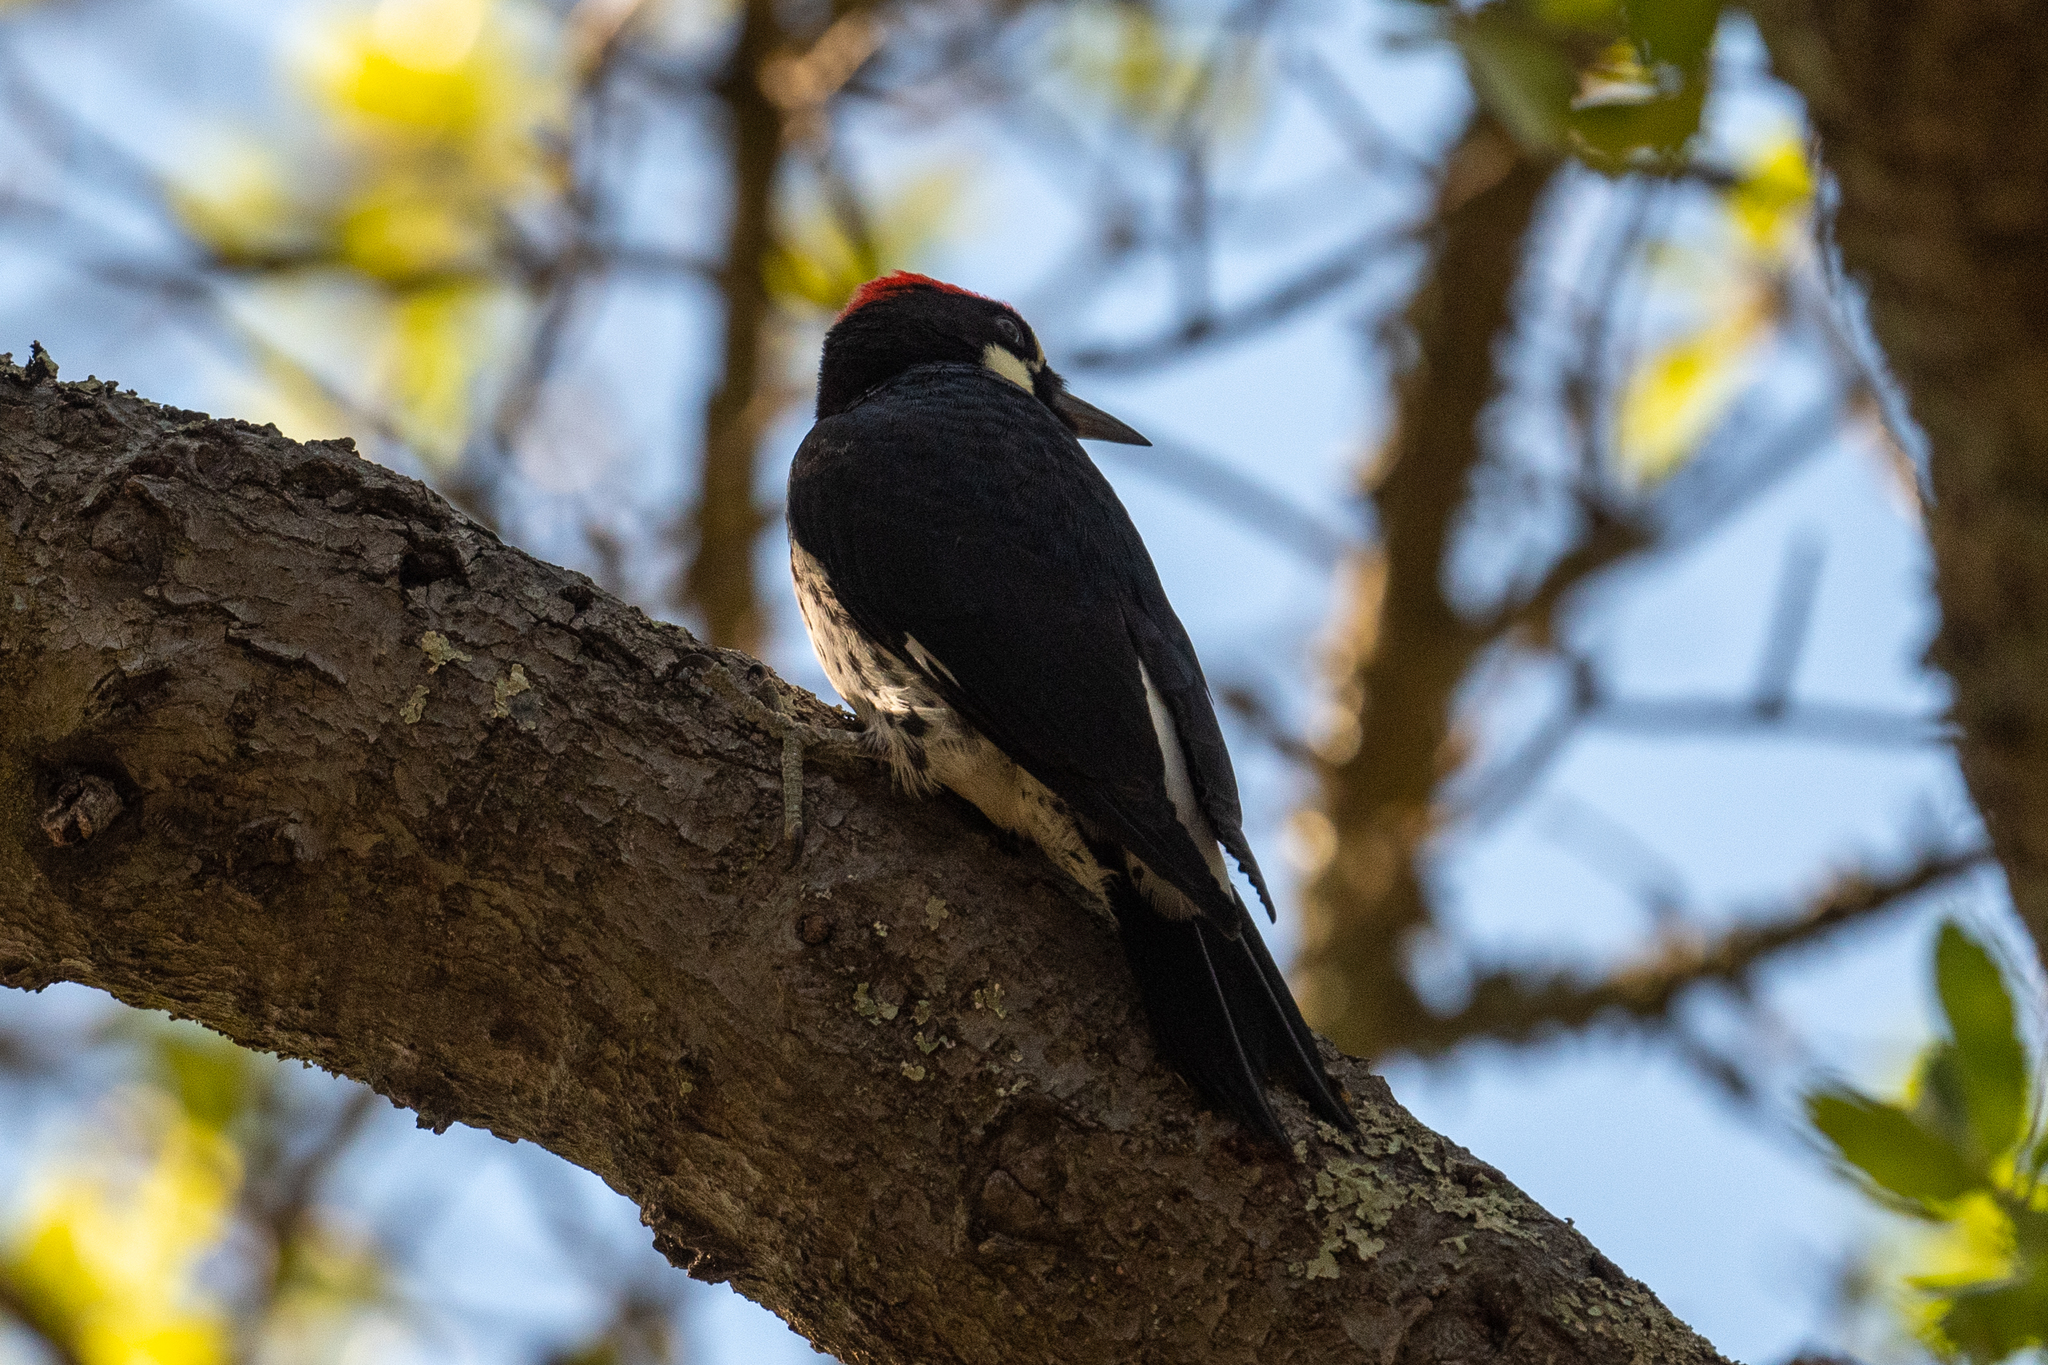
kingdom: Animalia
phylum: Chordata
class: Aves
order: Piciformes
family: Picidae
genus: Melanerpes
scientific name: Melanerpes formicivorus
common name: Acorn woodpecker
